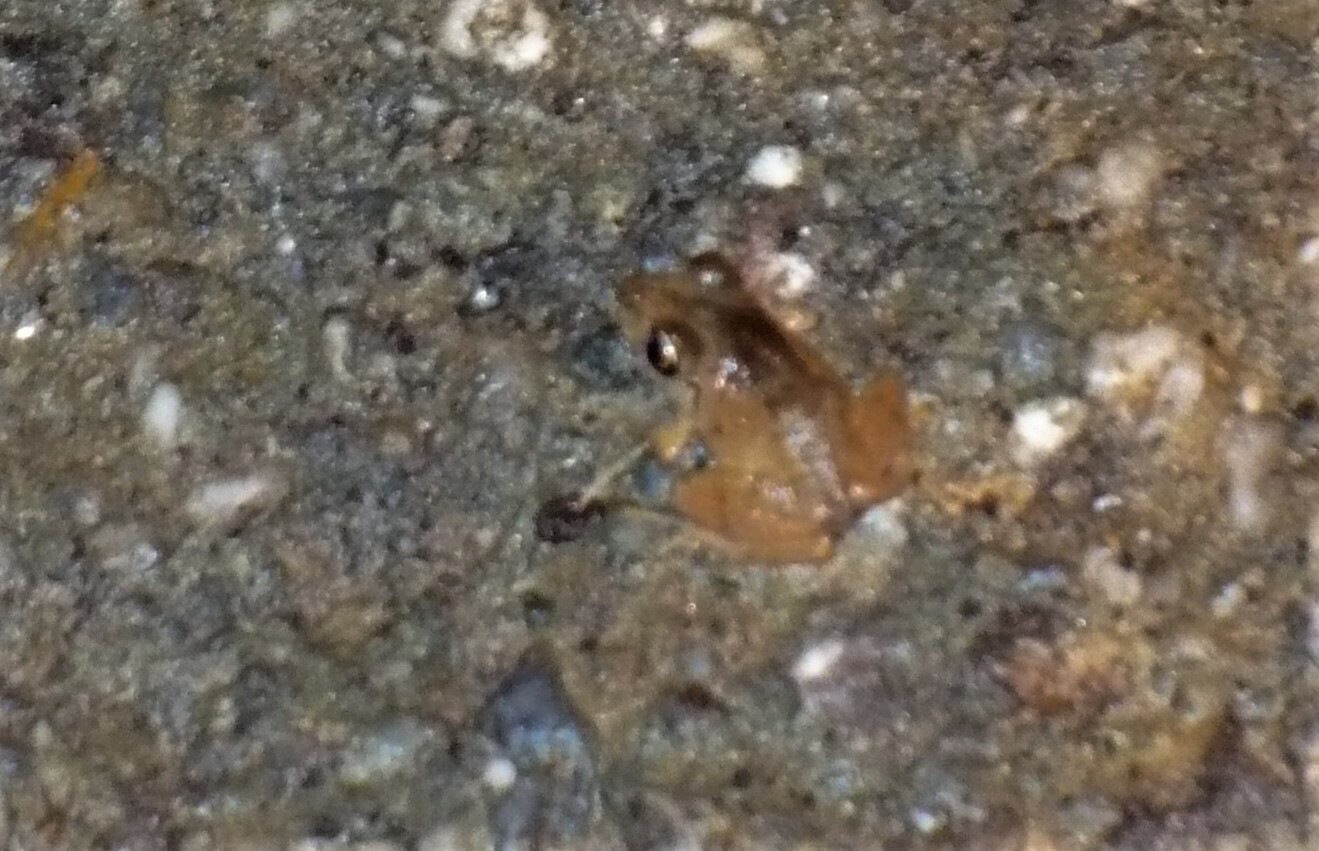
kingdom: Animalia
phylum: Chordata
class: Amphibia
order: Anura
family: Craugastoridae
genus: Pristimantis
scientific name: Pristimantis urichi
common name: Lesser antilles robber frog
